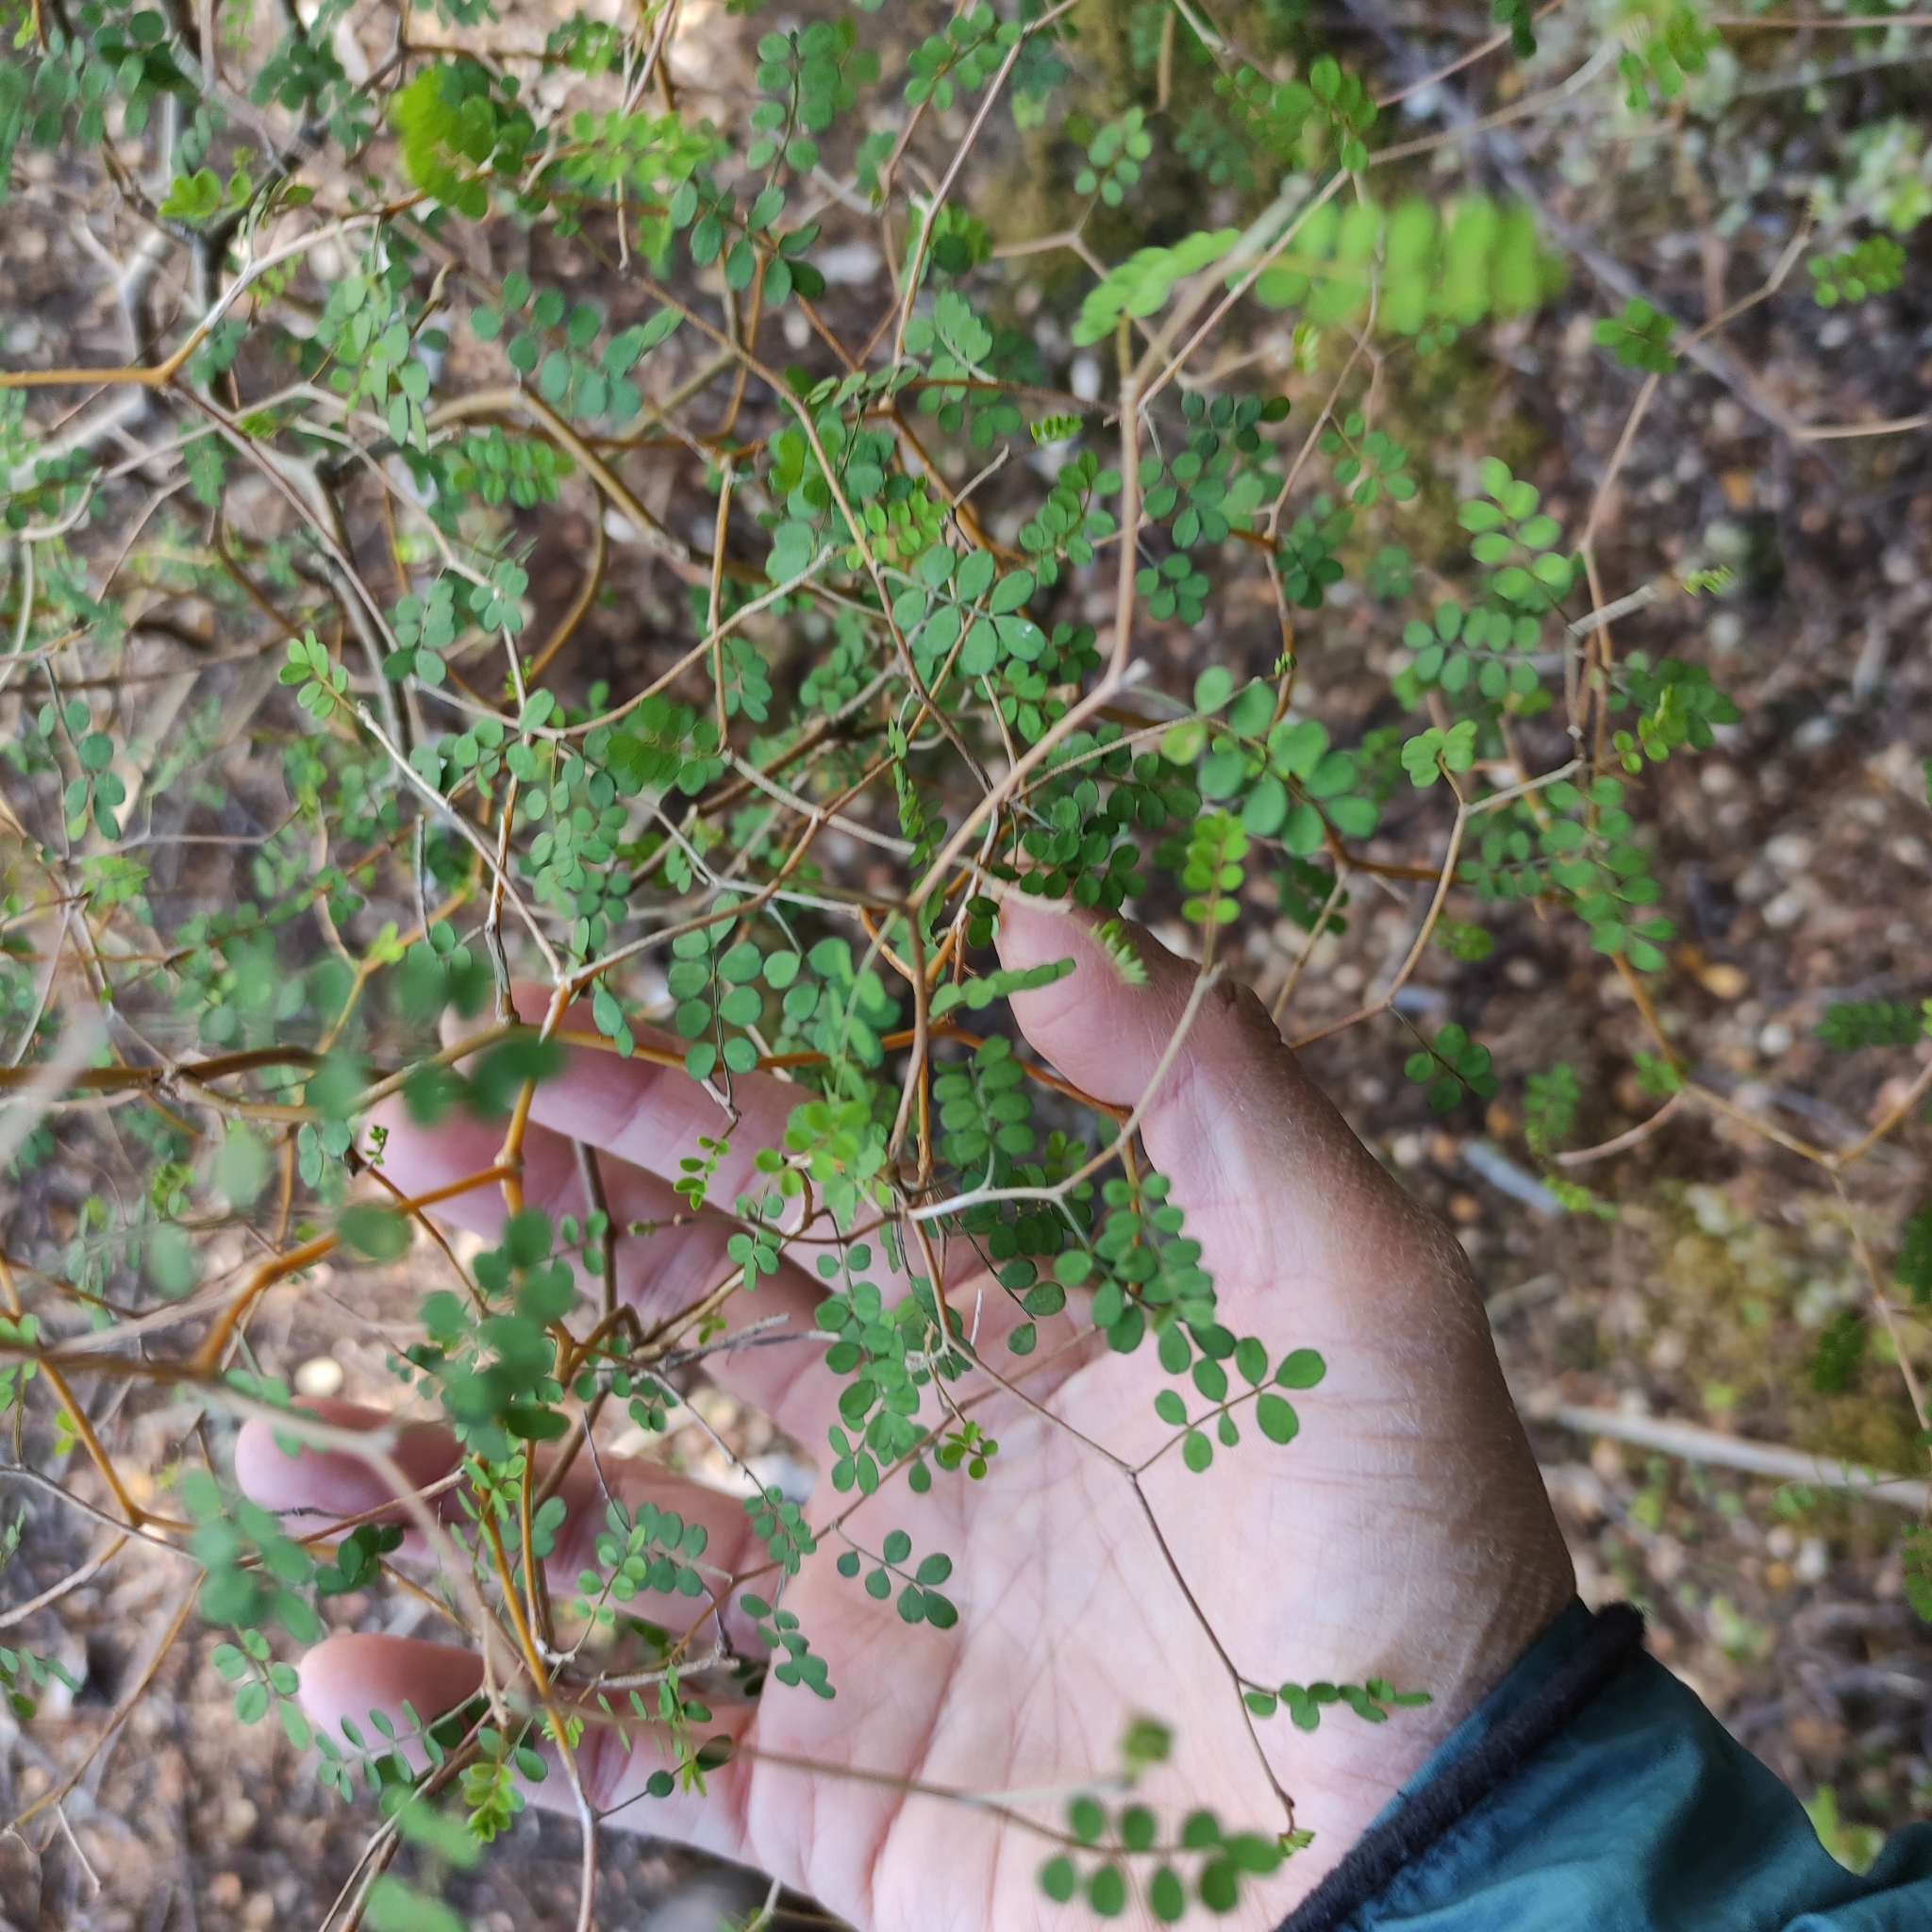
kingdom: Plantae
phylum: Tracheophyta
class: Magnoliopsida
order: Fabales
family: Fabaceae
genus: Sophora
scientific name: Sophora microphylla
